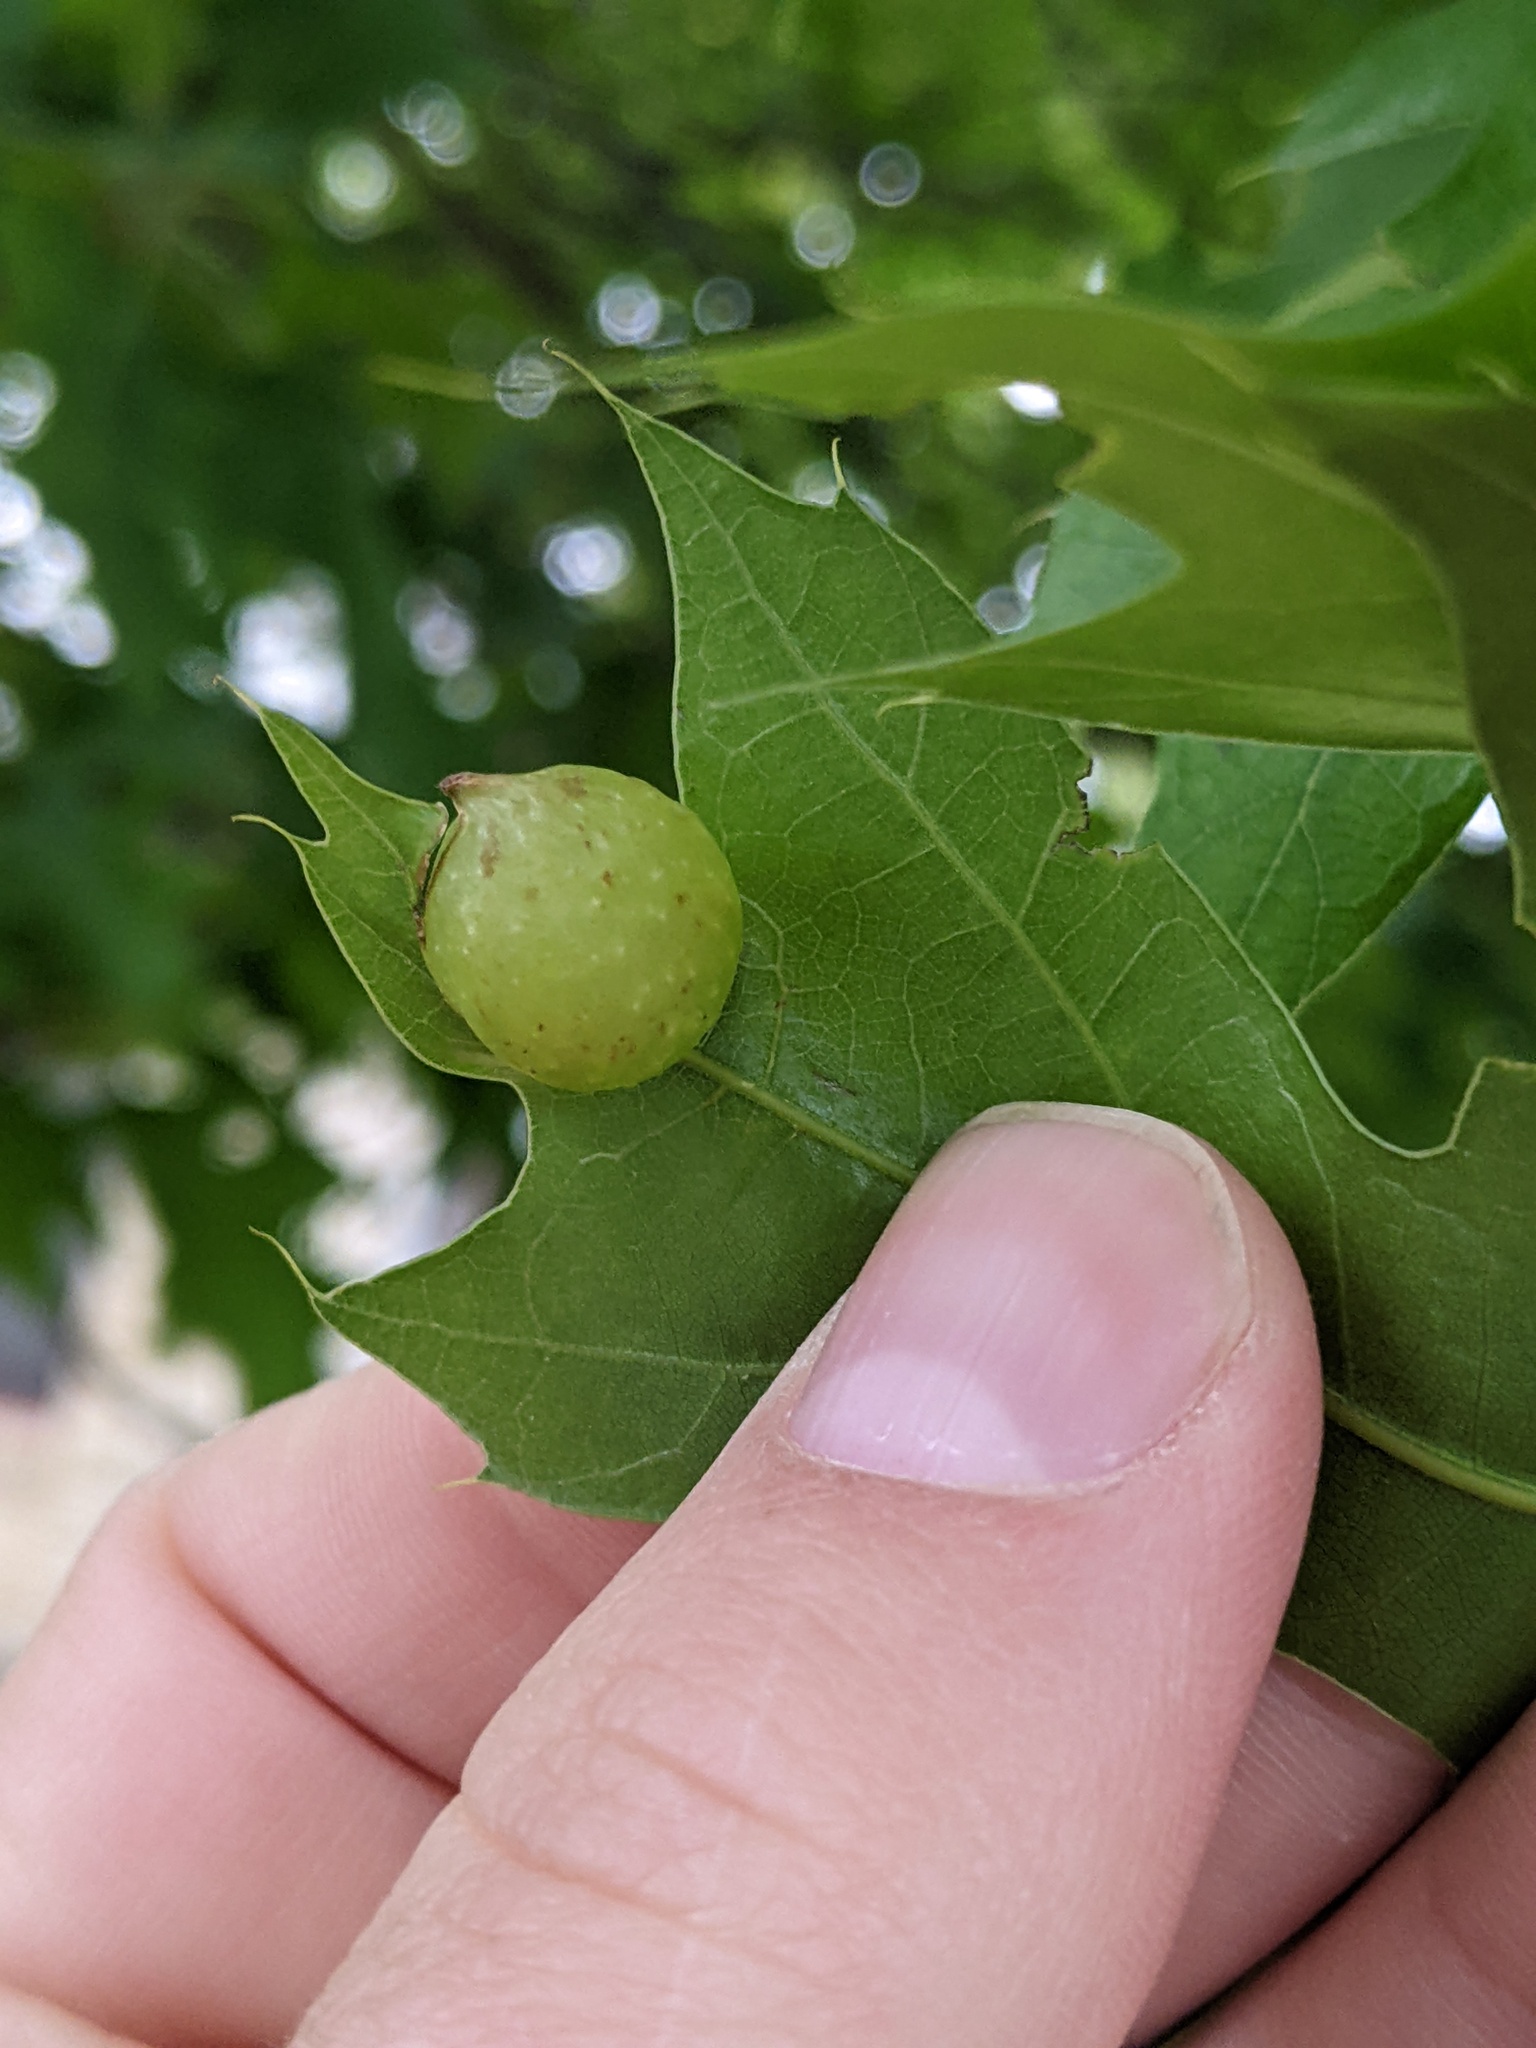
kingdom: Animalia
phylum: Arthropoda
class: Insecta
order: Hymenoptera
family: Cynipidae
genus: Dryocosmus
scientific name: Dryocosmus quercuspalustris
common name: Succulent oak gall wasp
